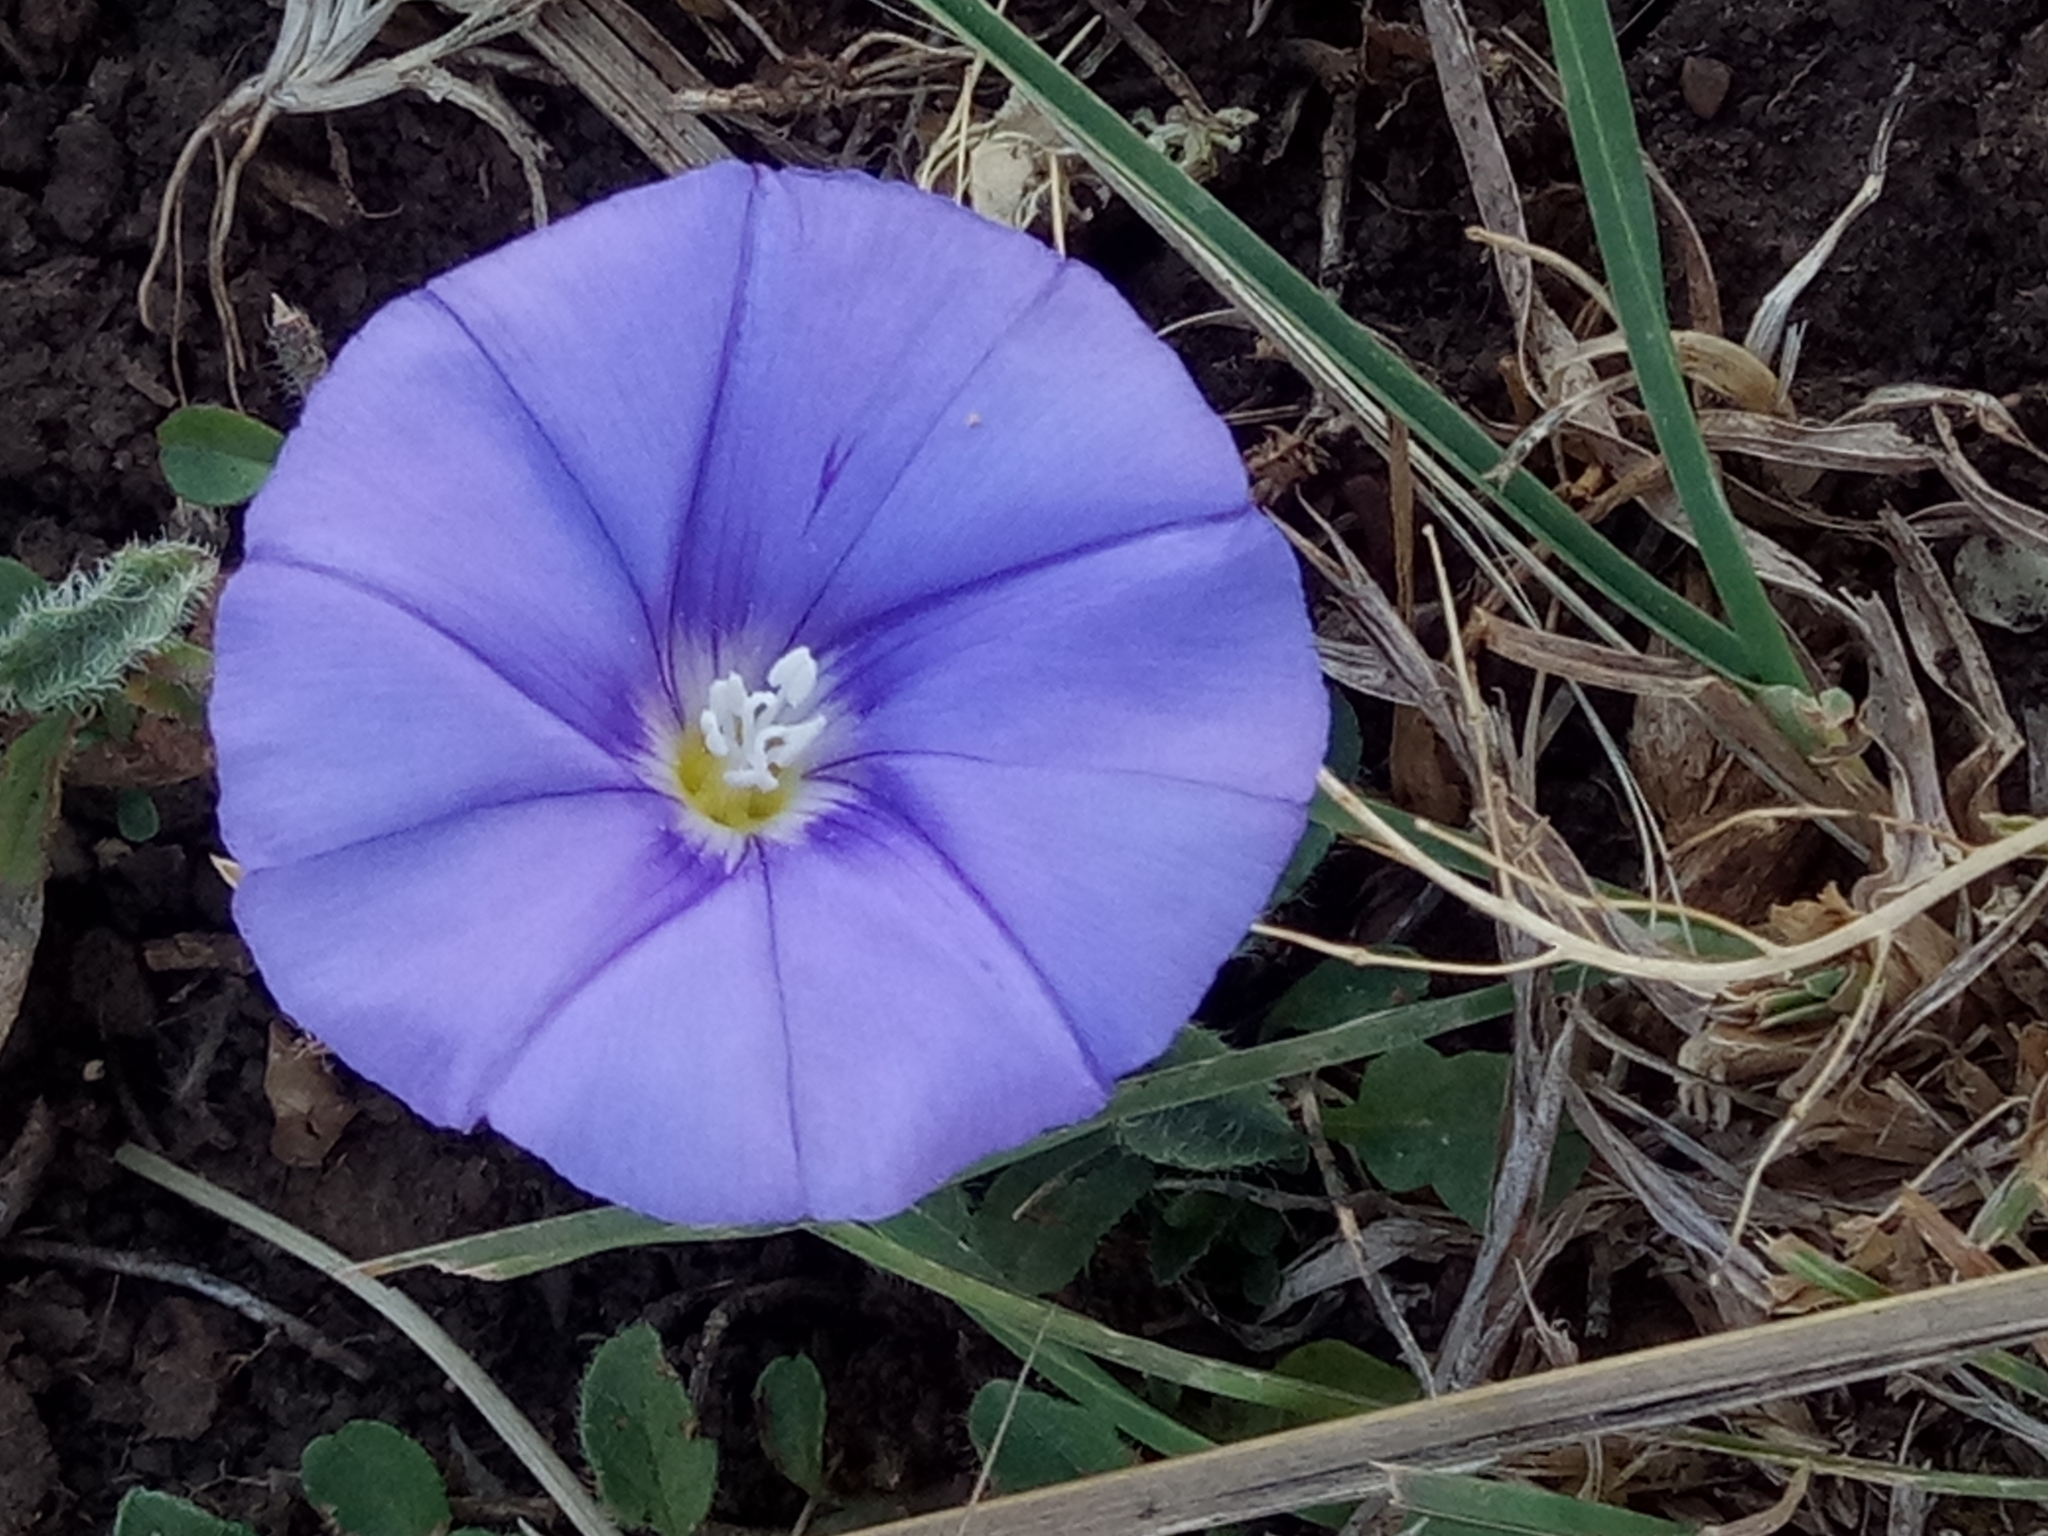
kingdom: Plantae
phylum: Tracheophyta
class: Magnoliopsida
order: Solanales
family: Convolvulaceae
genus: Convolvulus
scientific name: Convolvulus sabatius
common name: Ground blue-convolvulus
